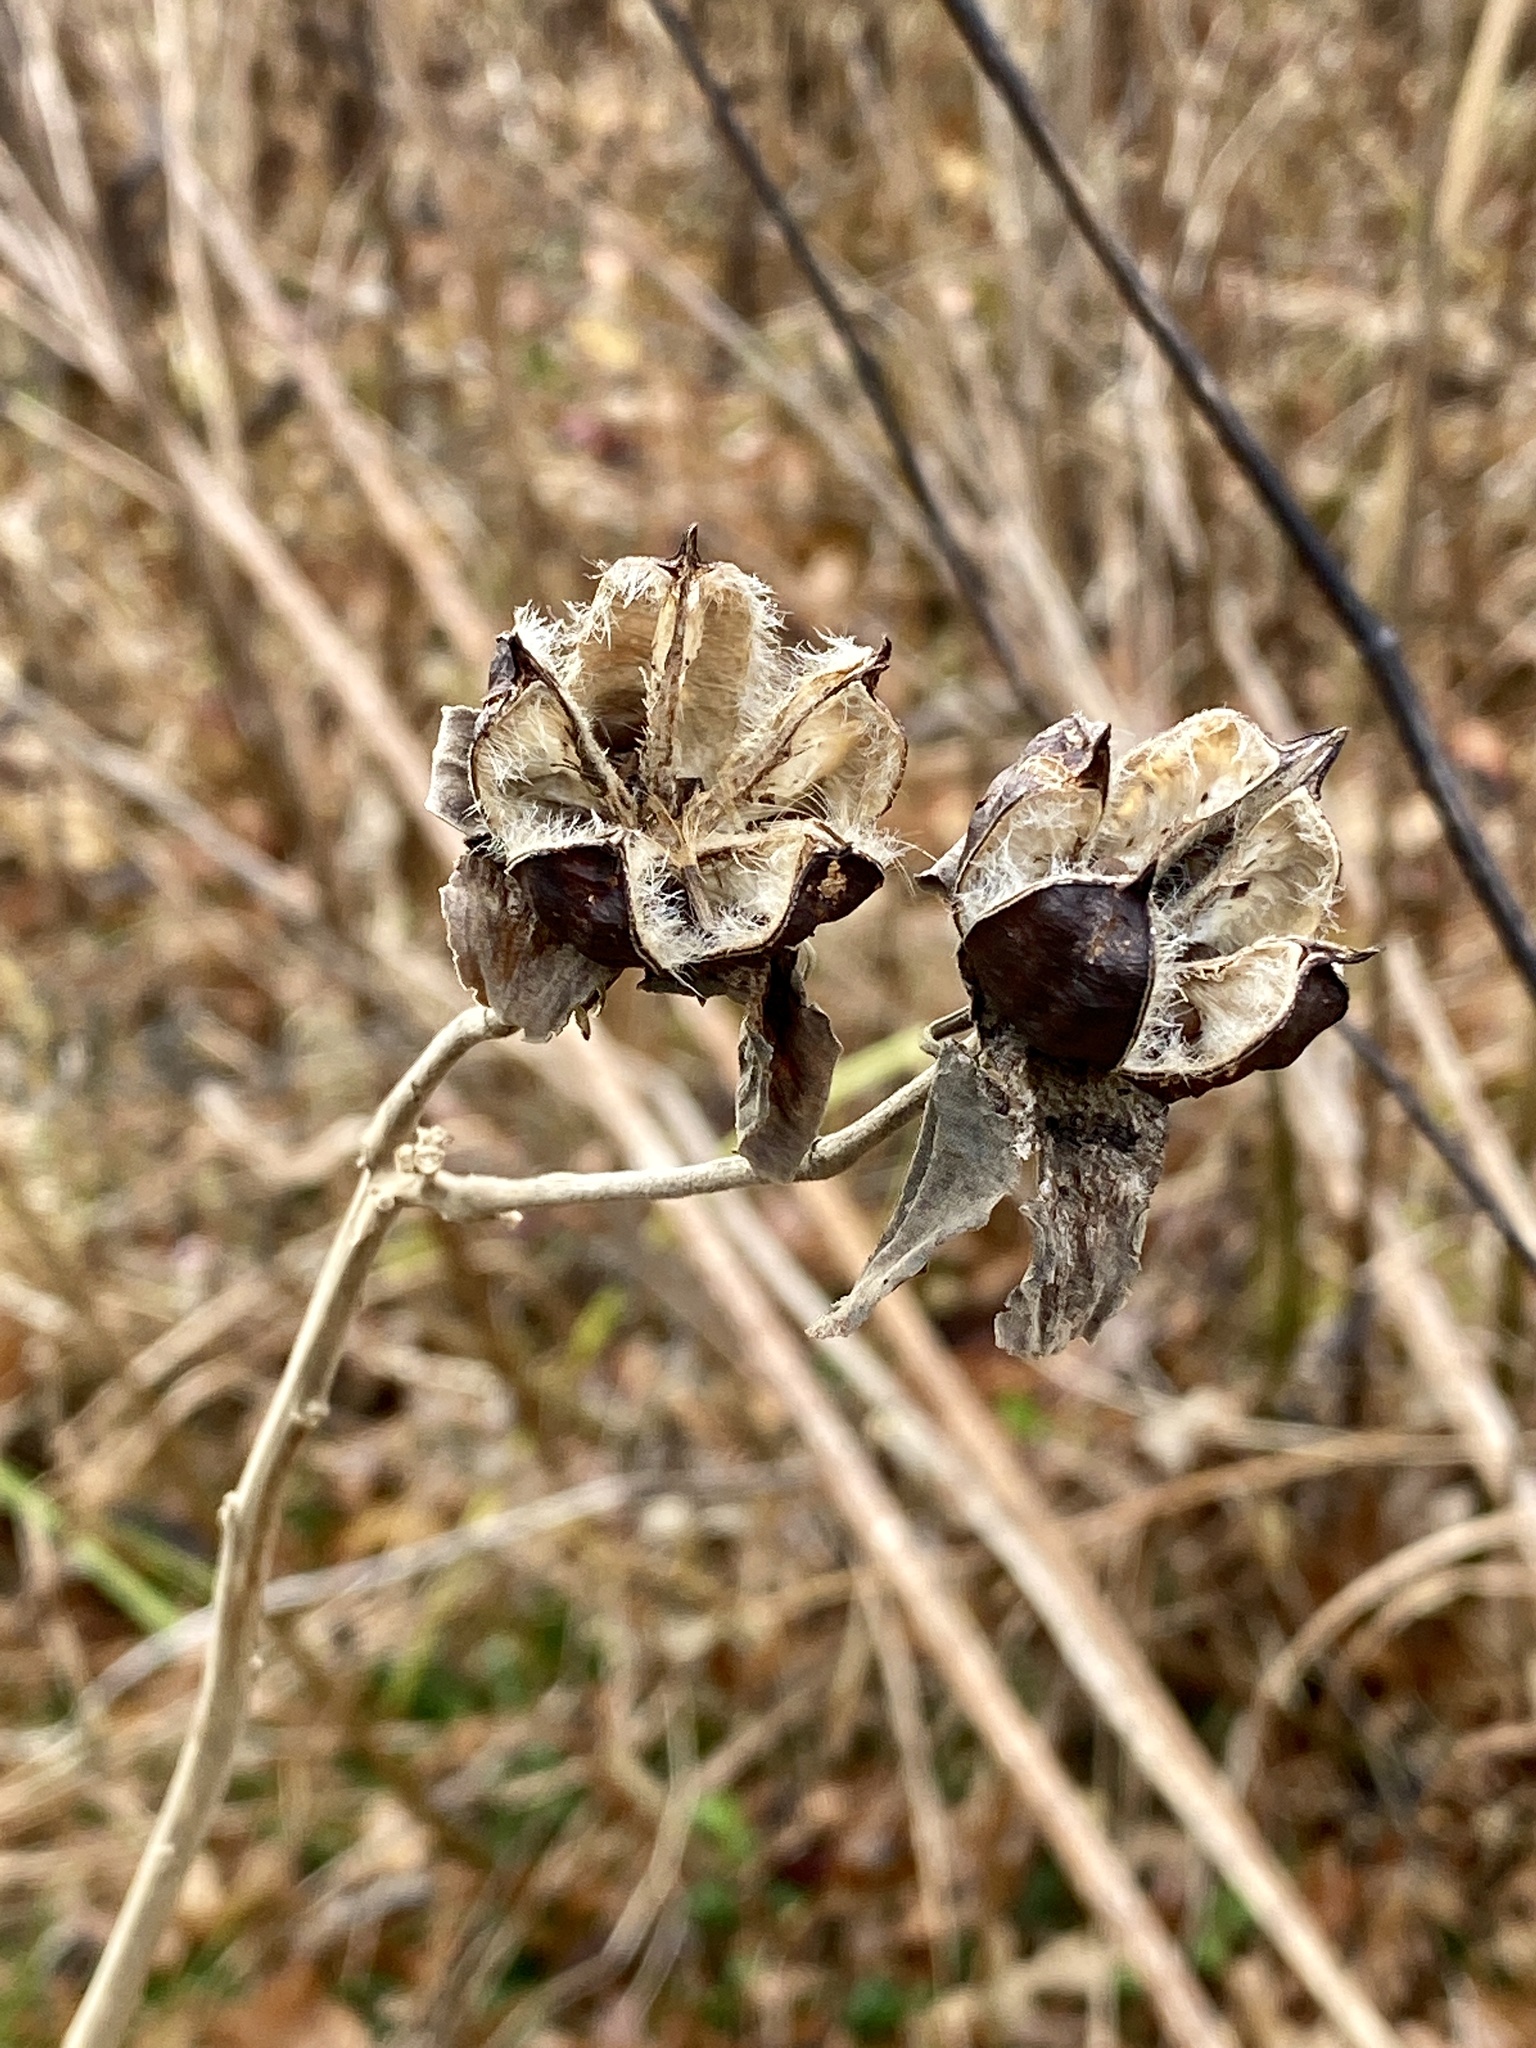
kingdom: Plantae
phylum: Tracheophyta
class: Magnoliopsida
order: Malvales
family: Malvaceae
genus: Hibiscus
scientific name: Hibiscus moscheutos
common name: Common rose-mallow
